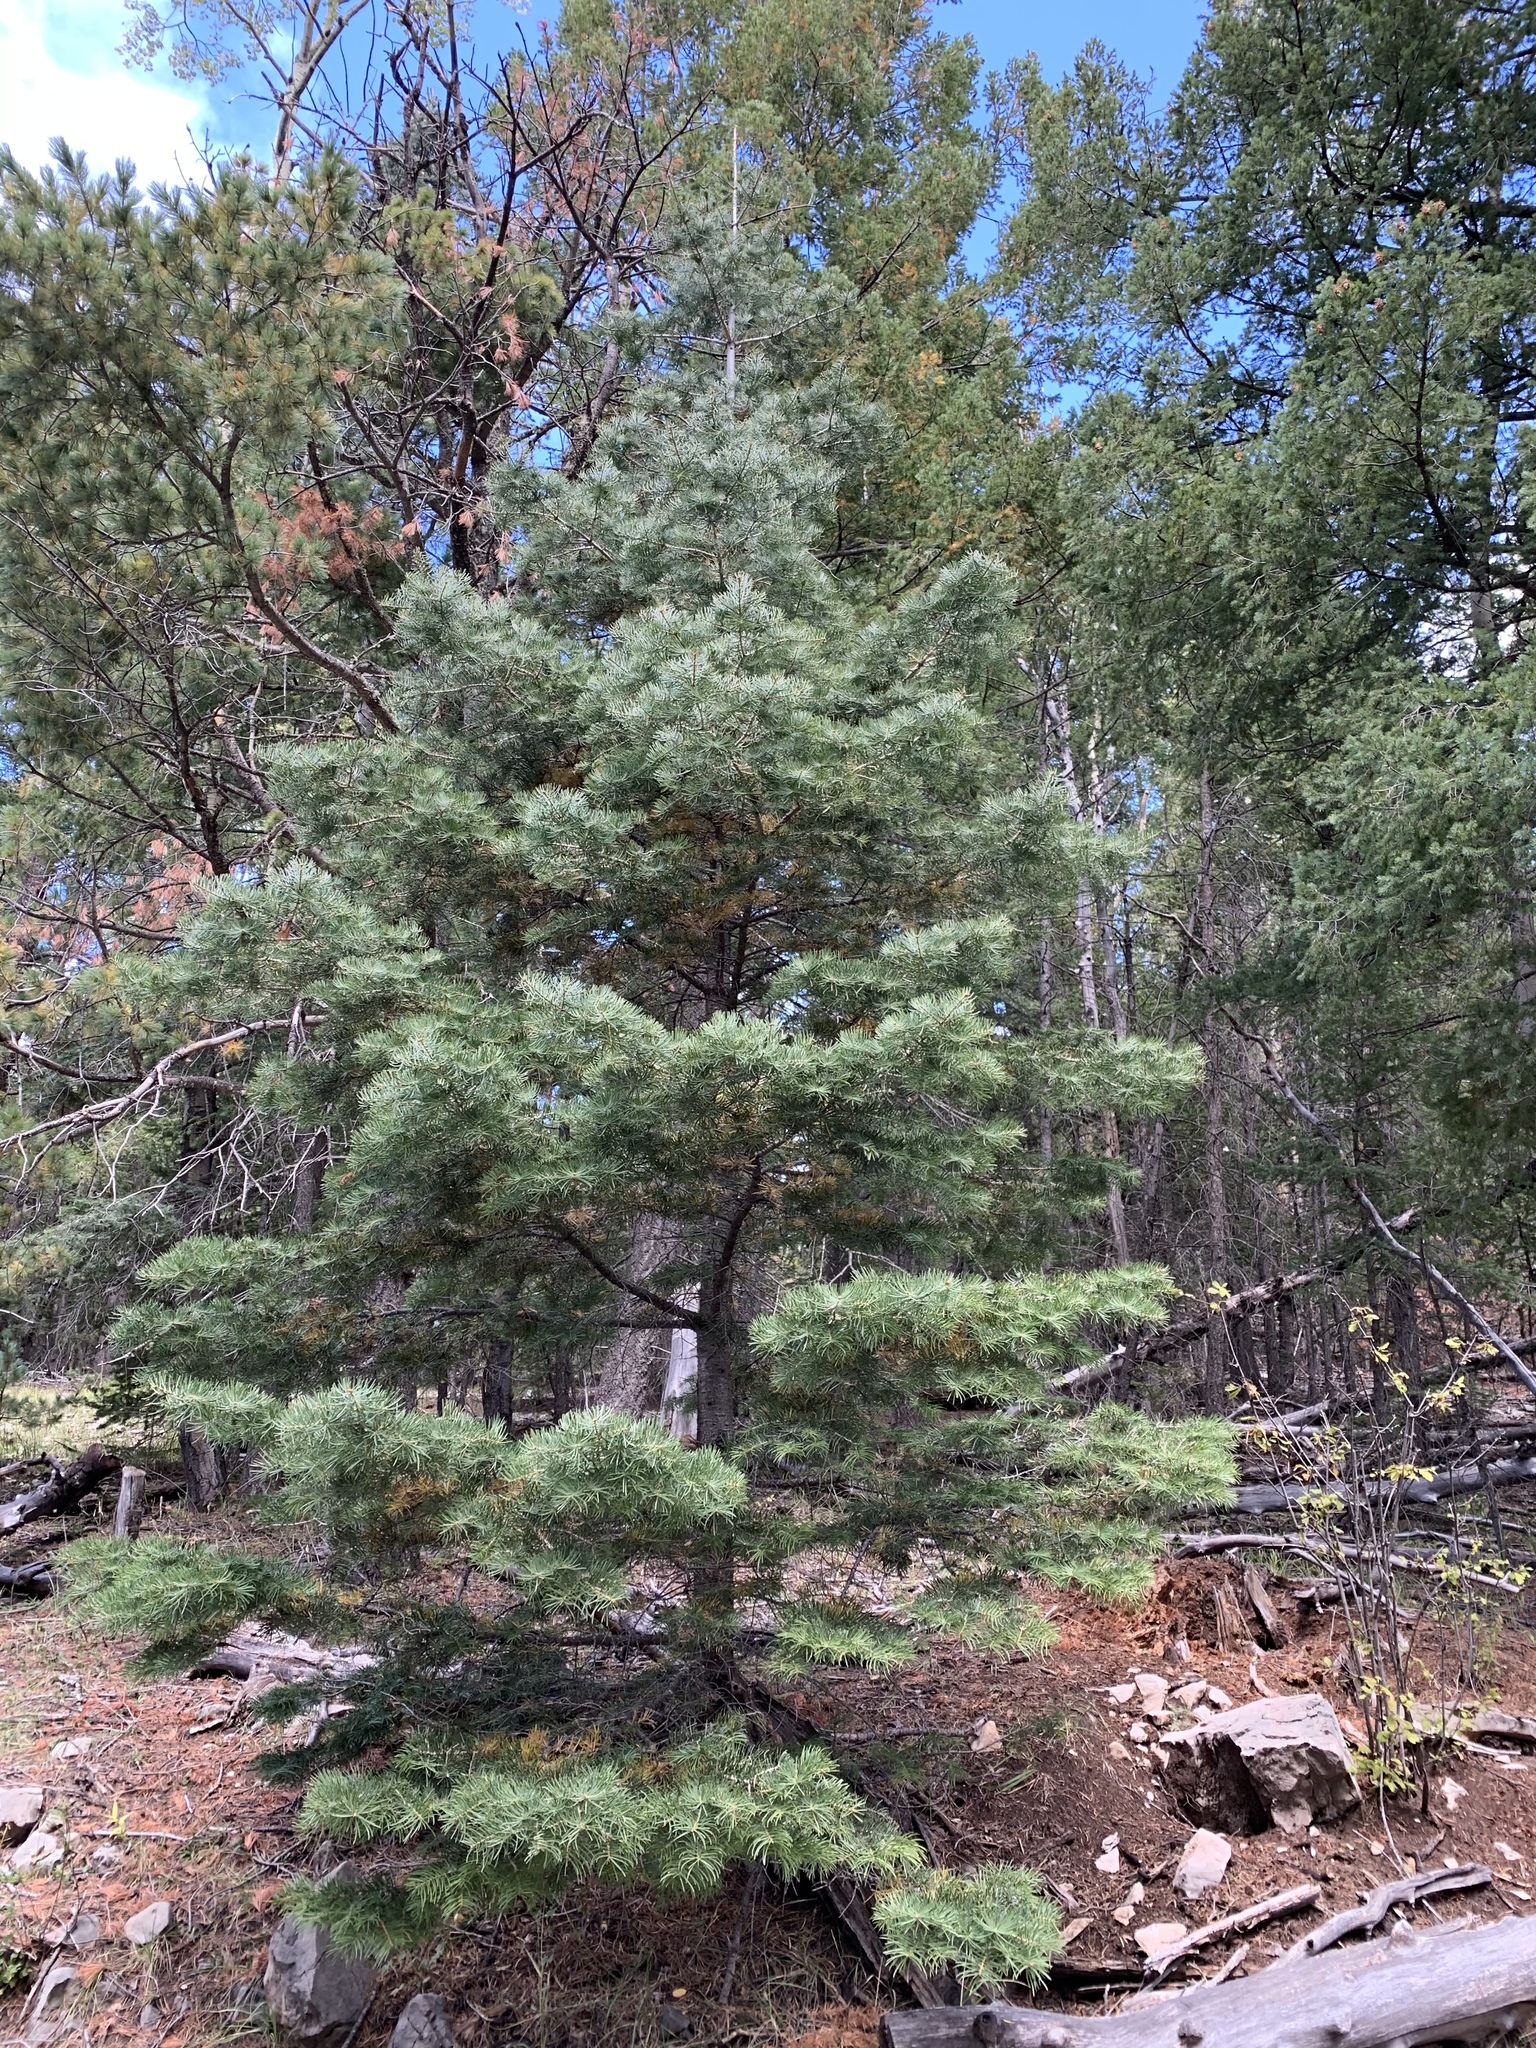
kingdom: Plantae
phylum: Tracheophyta
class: Pinopsida
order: Pinales
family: Pinaceae
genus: Abies
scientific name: Abies concolor
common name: Colorado fir
